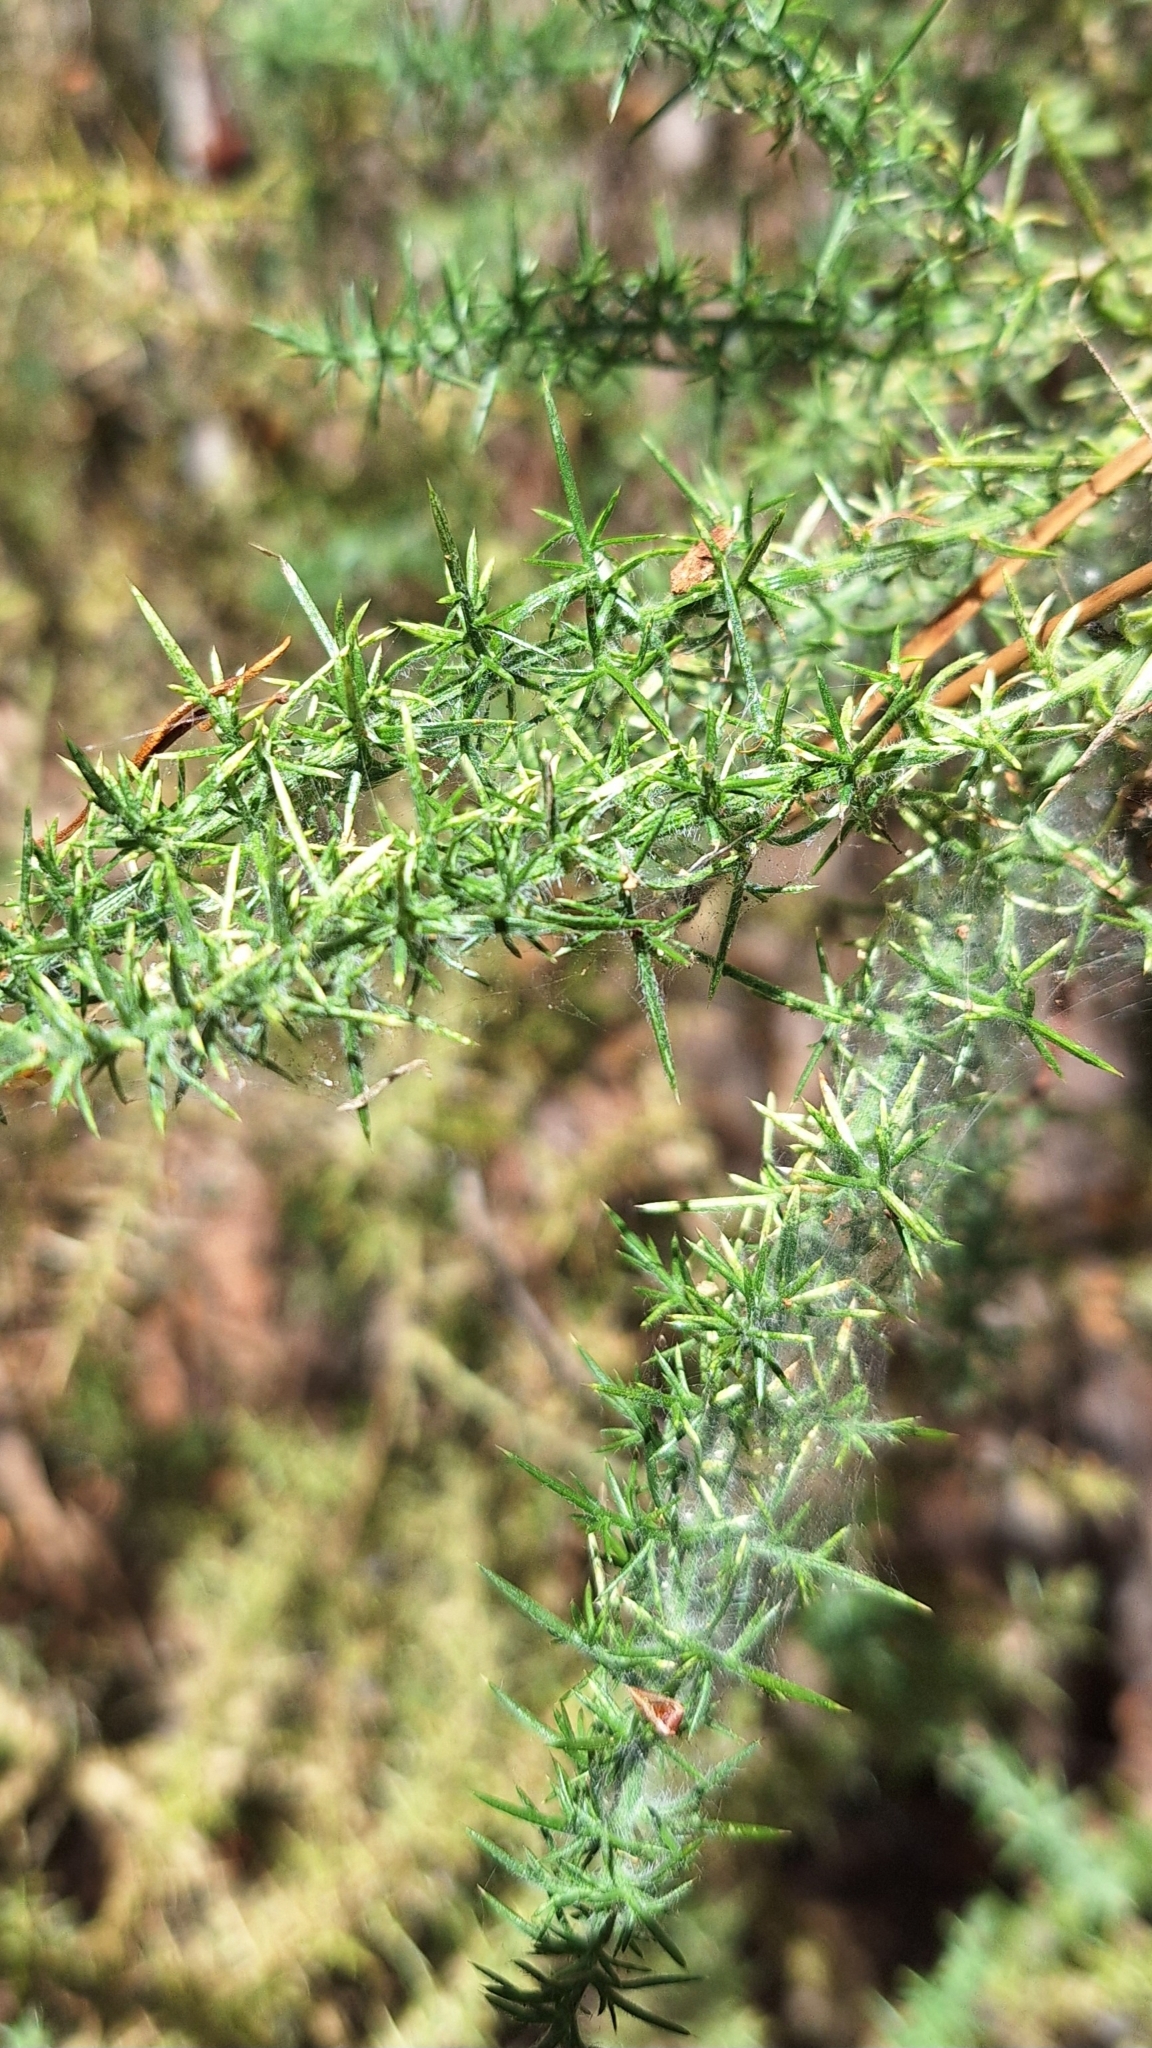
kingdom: Plantae
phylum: Tracheophyta
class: Magnoliopsida
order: Fabales
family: Fabaceae
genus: Ulex
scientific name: Ulex europaeus
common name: Common gorse
